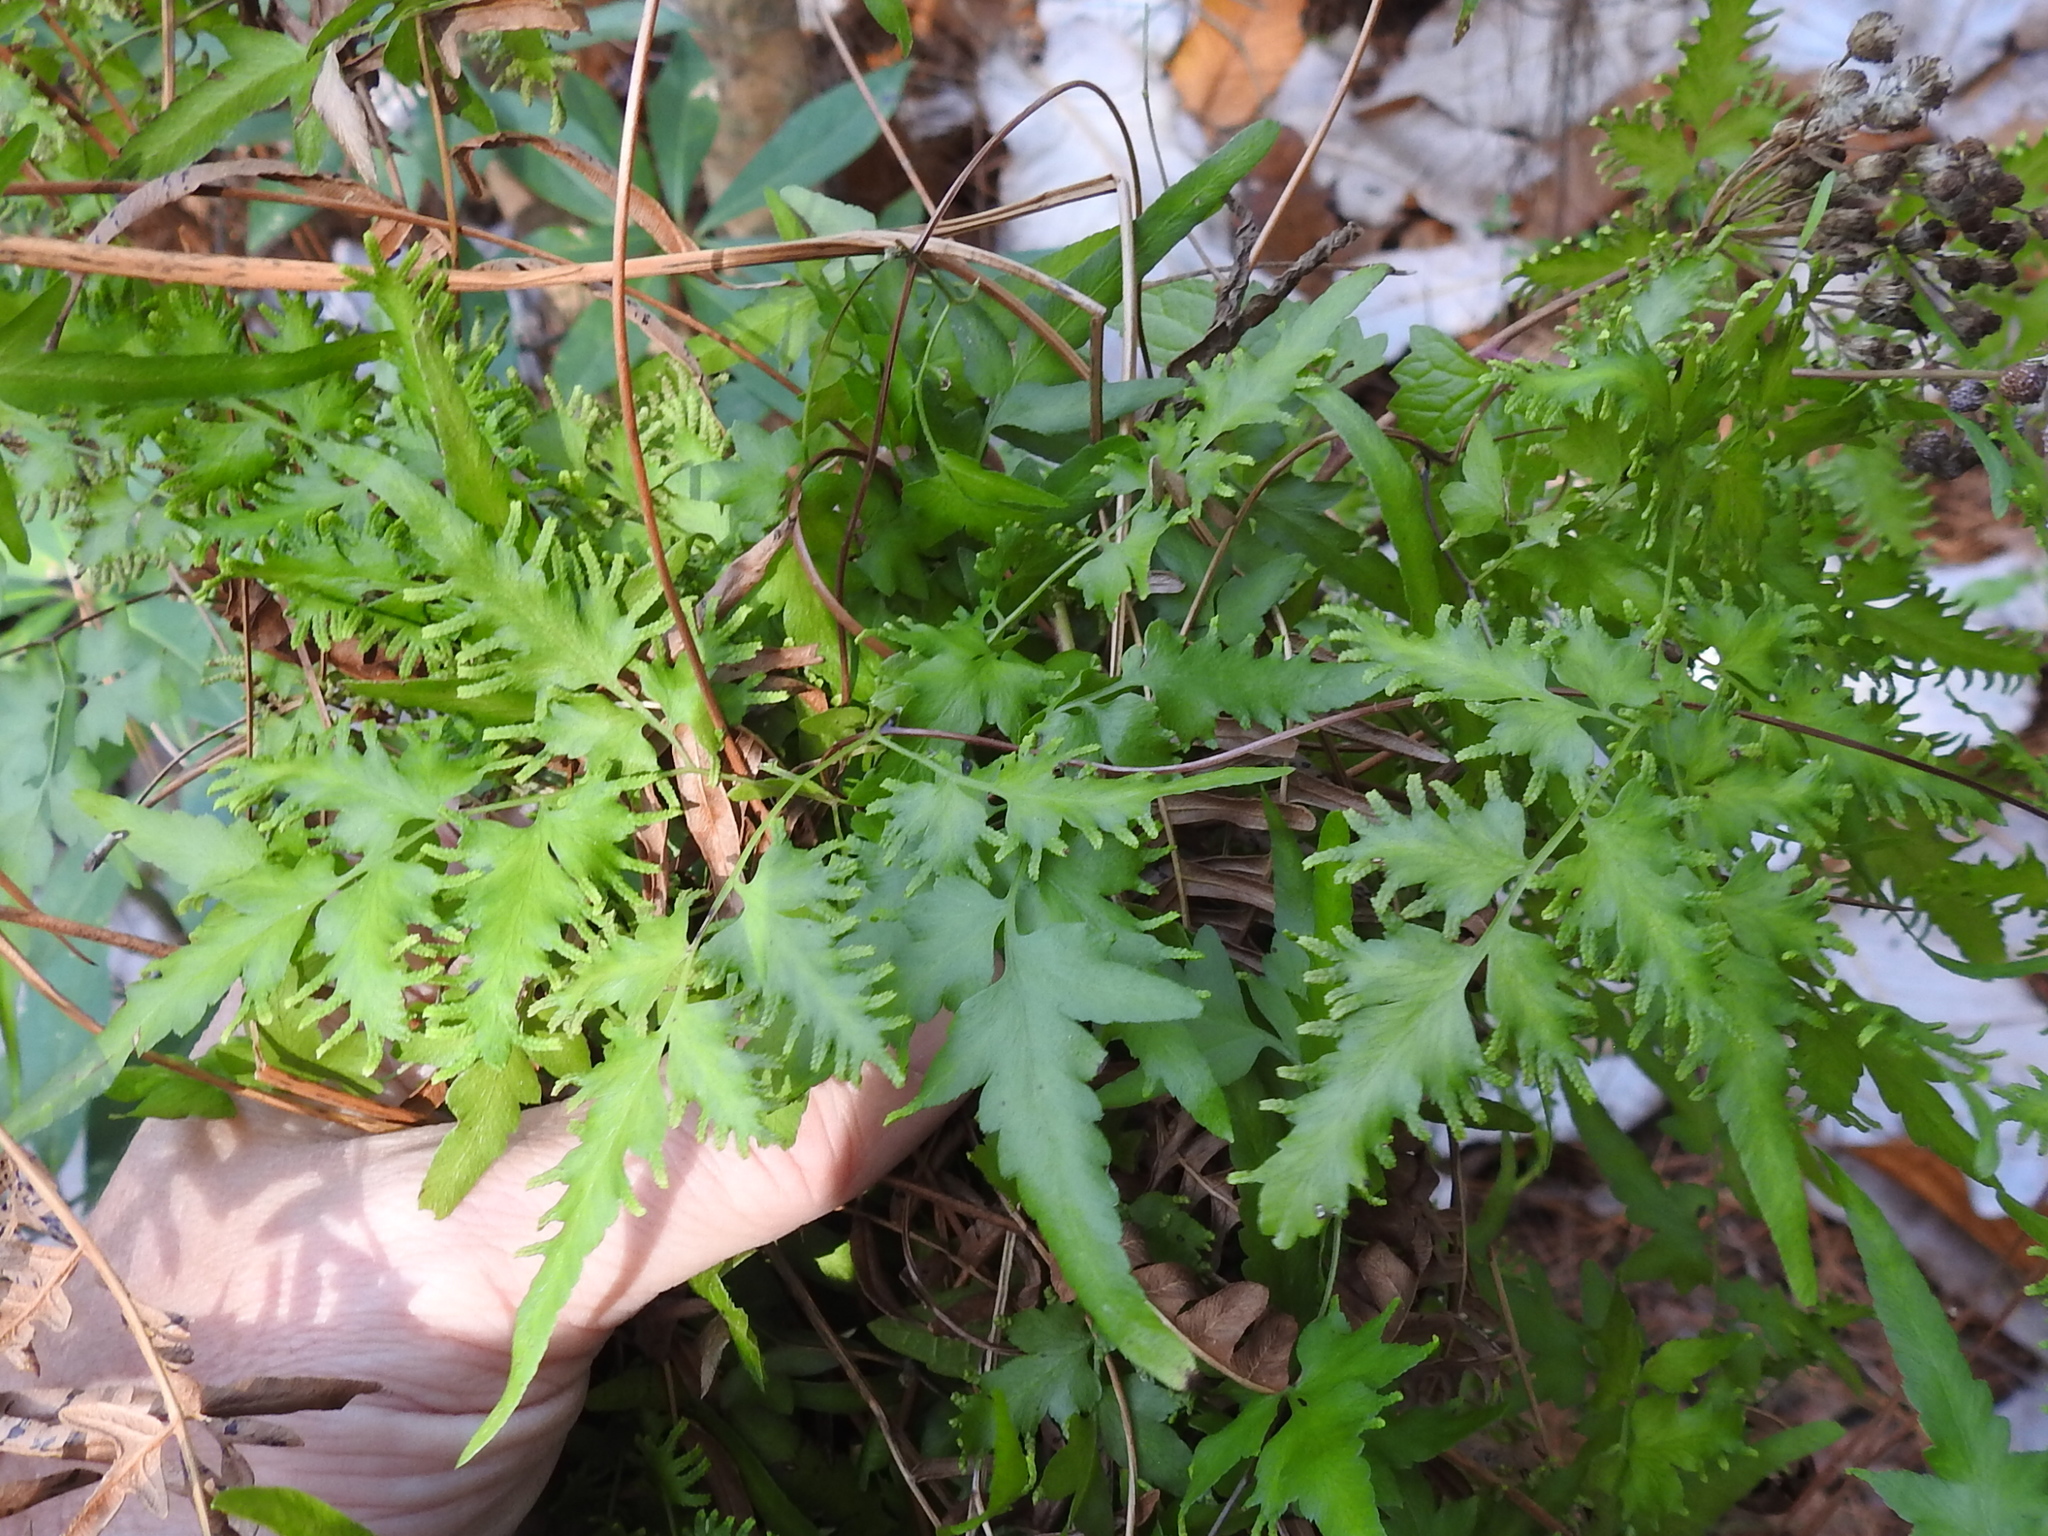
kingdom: Plantae
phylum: Tracheophyta
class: Polypodiopsida
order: Schizaeales
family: Lygodiaceae
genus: Lygodium
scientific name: Lygodium japonicum
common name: Japanese climbing fern
